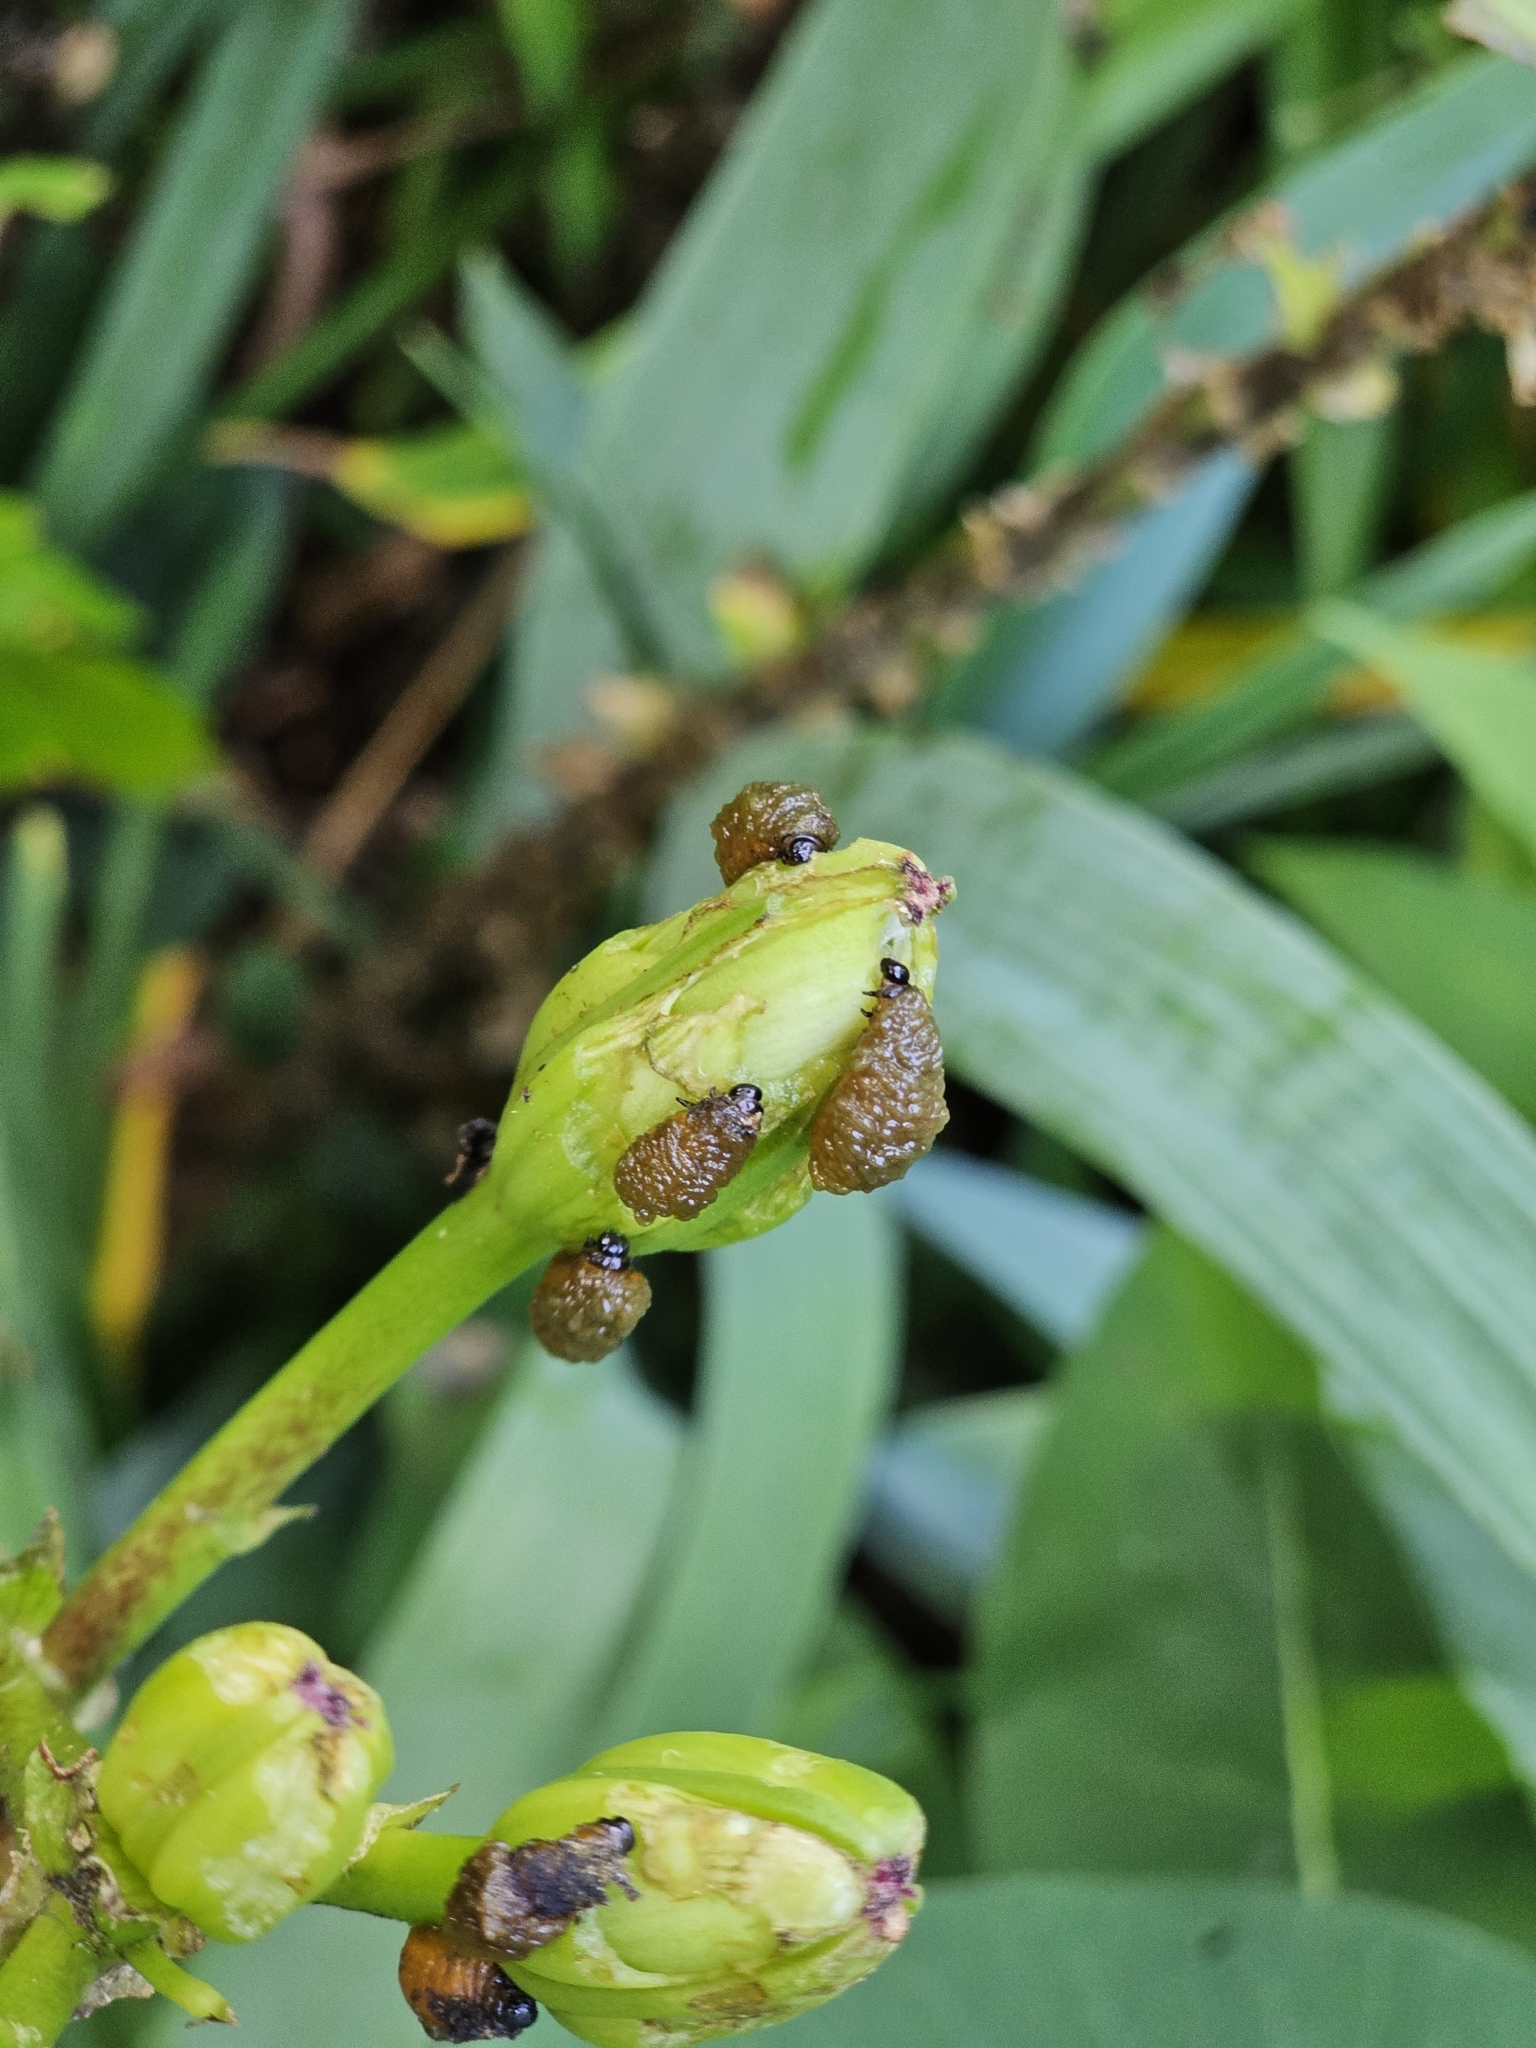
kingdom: Animalia
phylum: Arthropoda
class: Insecta
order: Coleoptera
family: Chrysomelidae
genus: Lilioceris
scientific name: Lilioceris lilii
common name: Lily beetle
